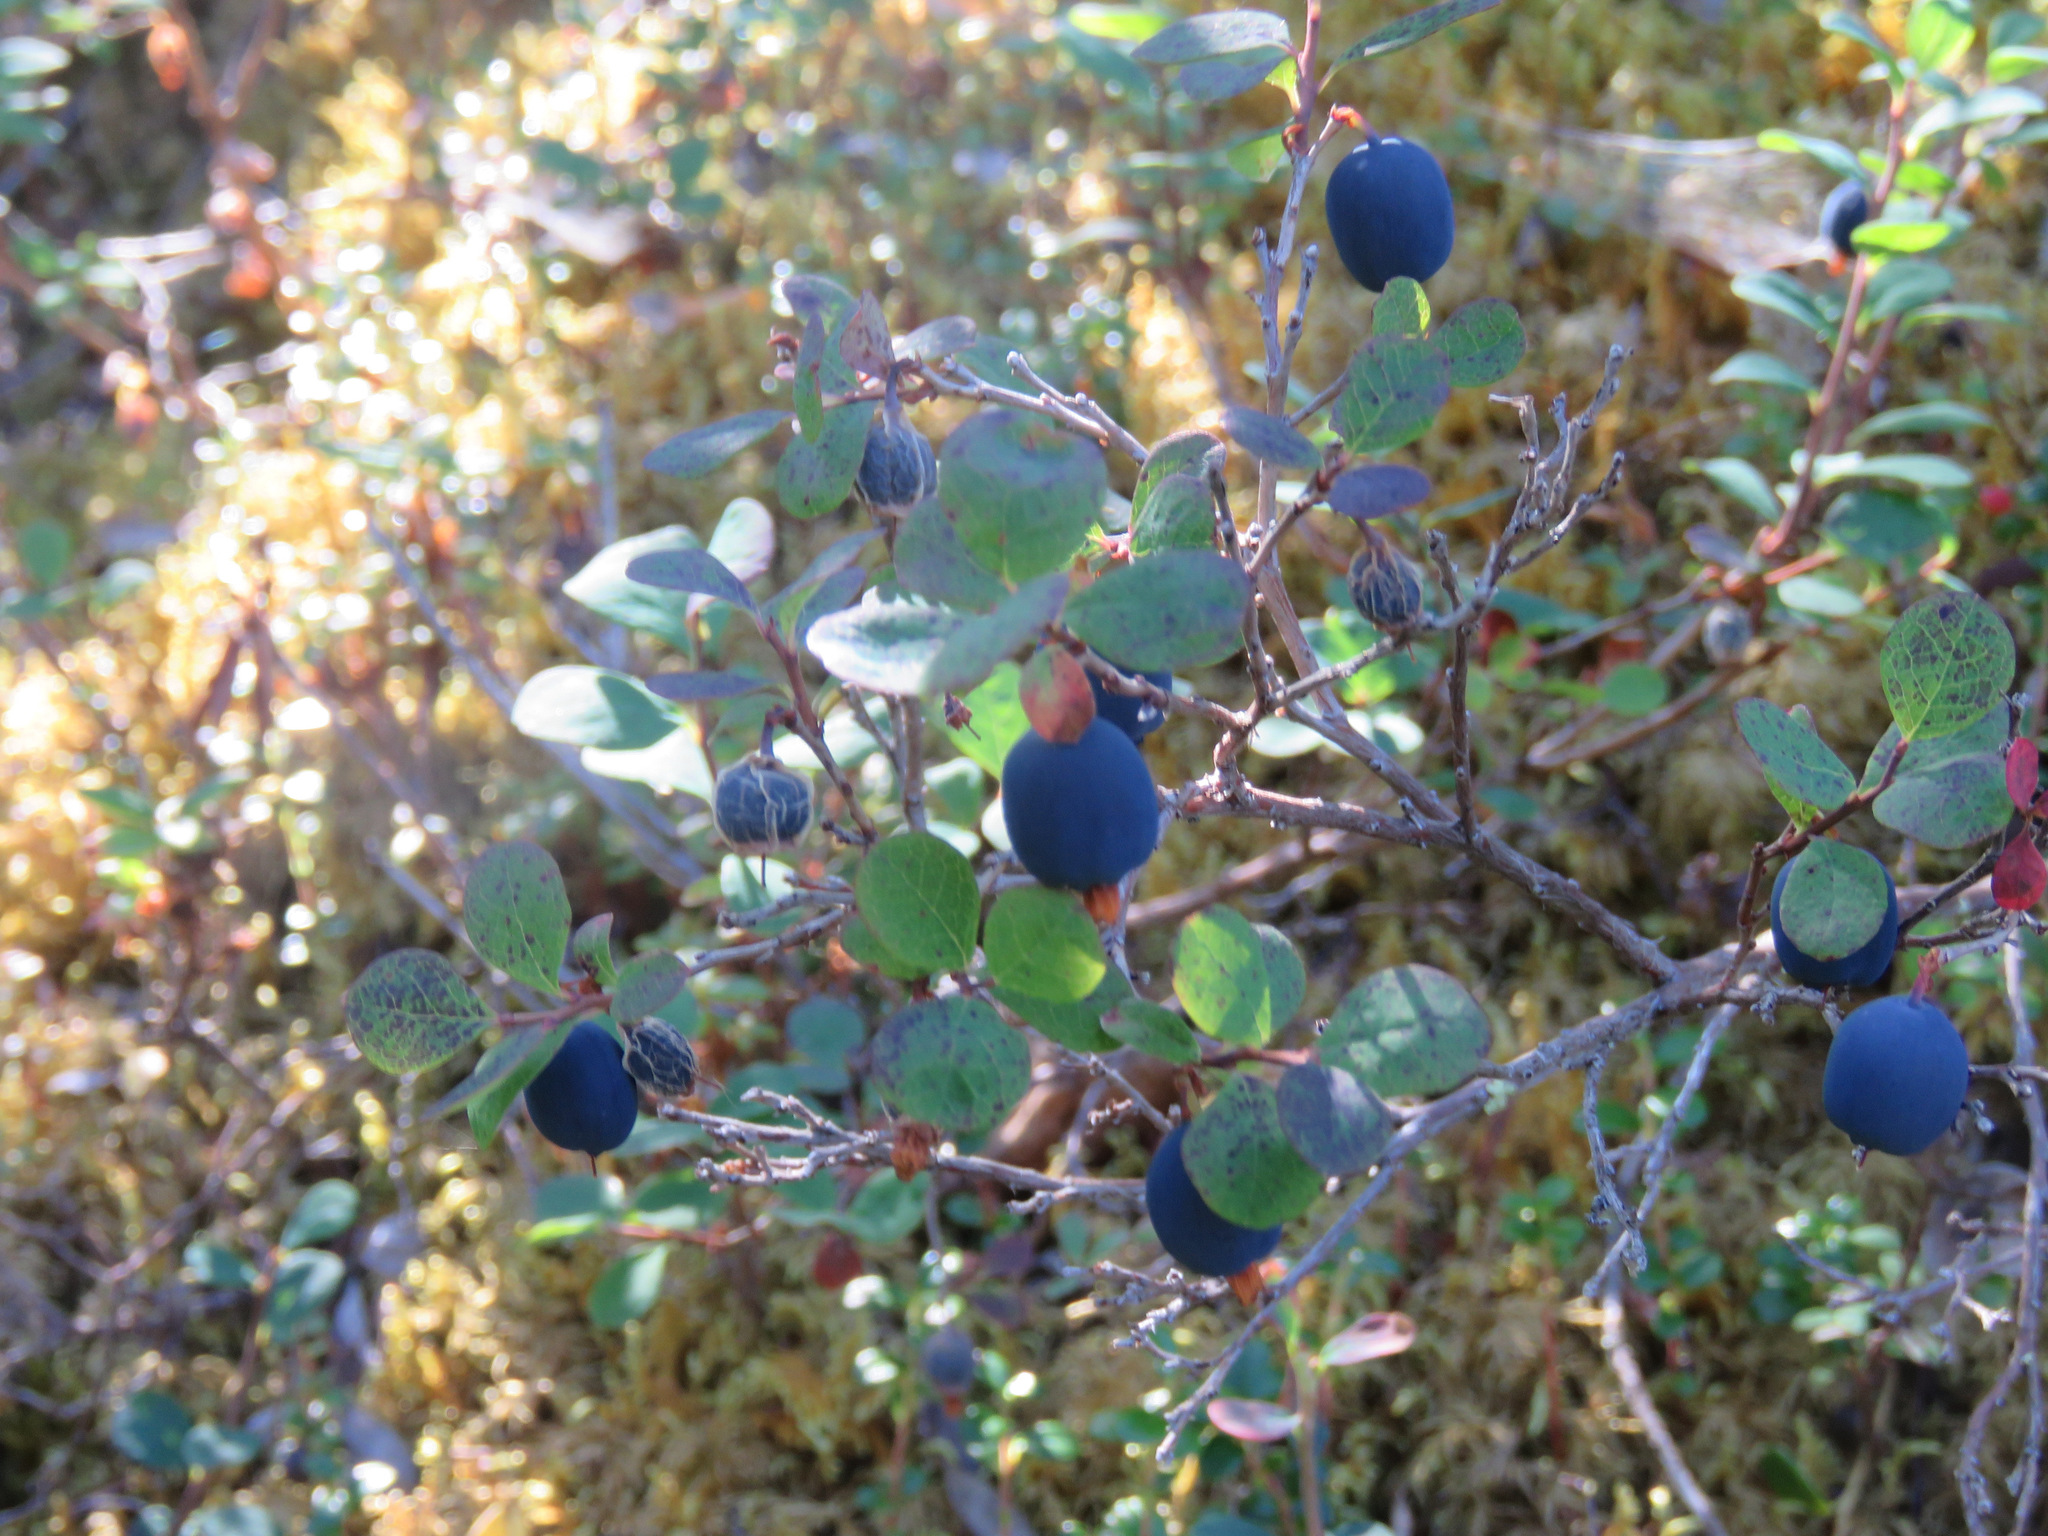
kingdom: Plantae
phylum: Tracheophyta
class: Magnoliopsida
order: Ericales
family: Ericaceae
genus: Vaccinium
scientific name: Vaccinium uliginosum
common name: Bog bilberry
